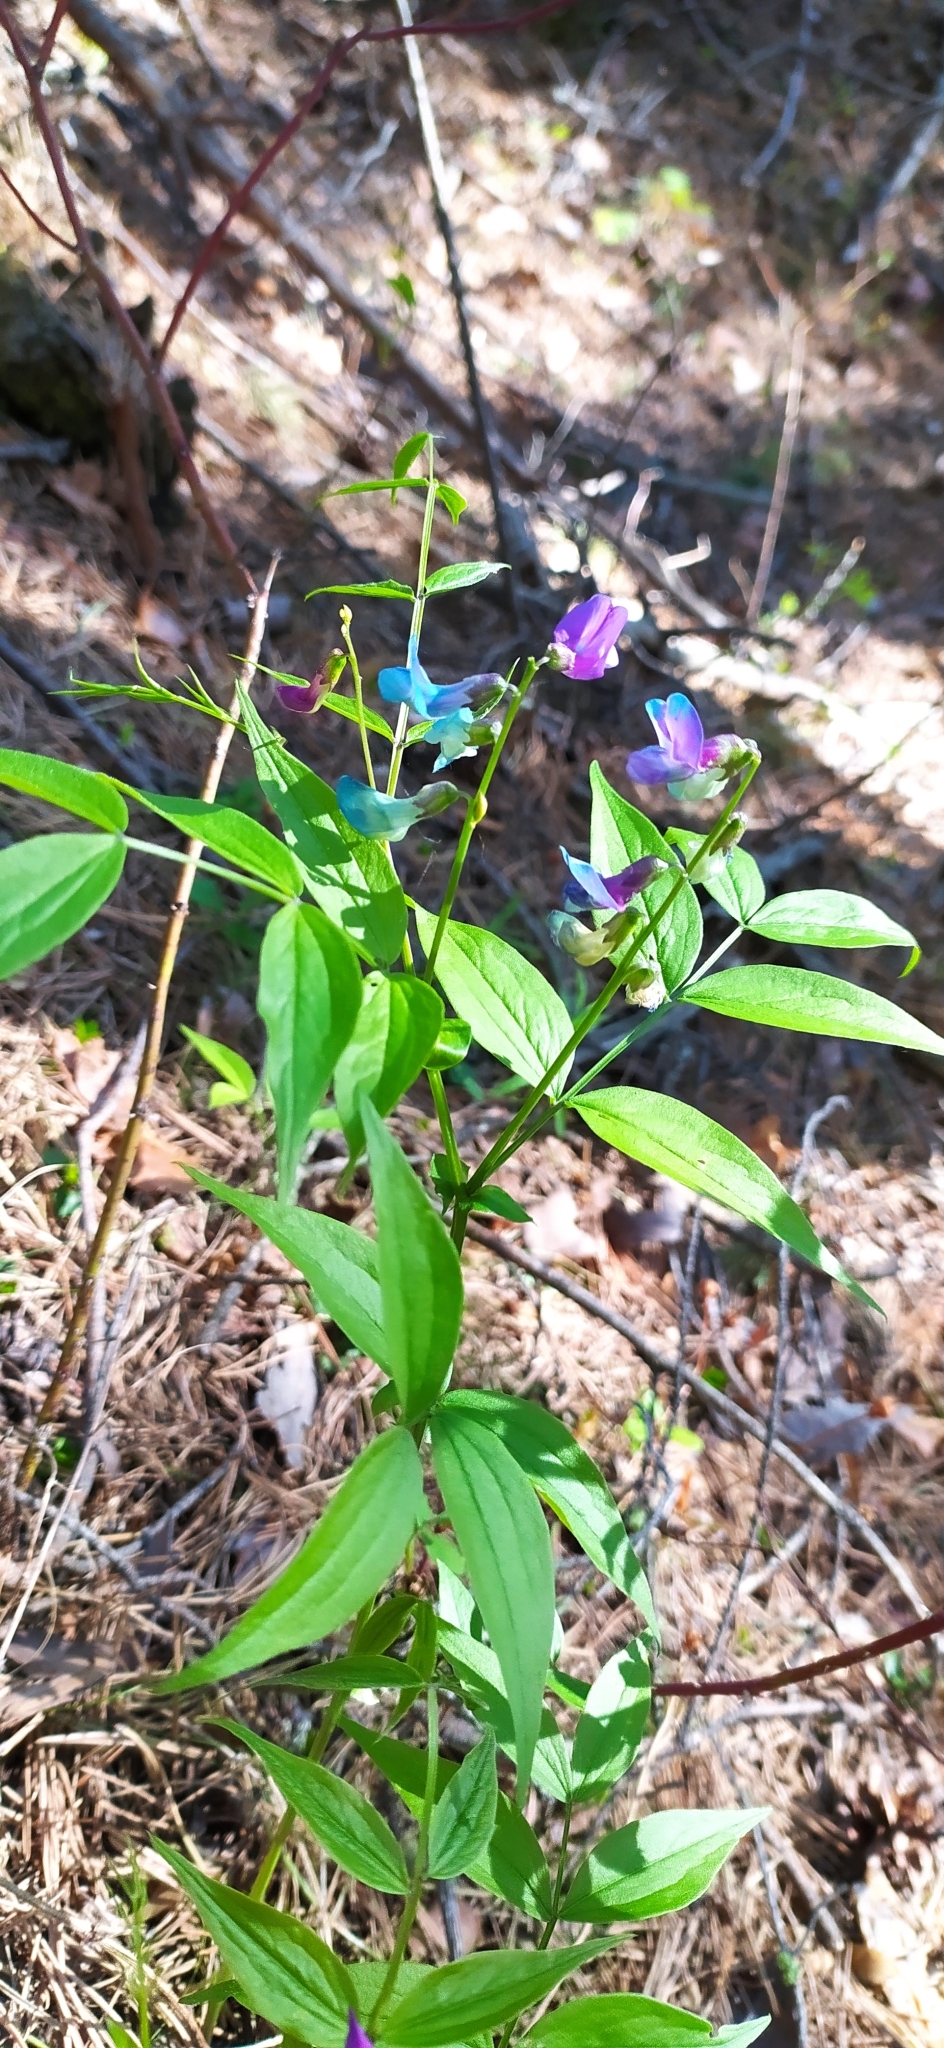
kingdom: Plantae
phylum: Tracheophyta
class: Magnoliopsida
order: Fabales
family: Fabaceae
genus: Lathyrus
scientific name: Lathyrus vernus
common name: Spring pea
